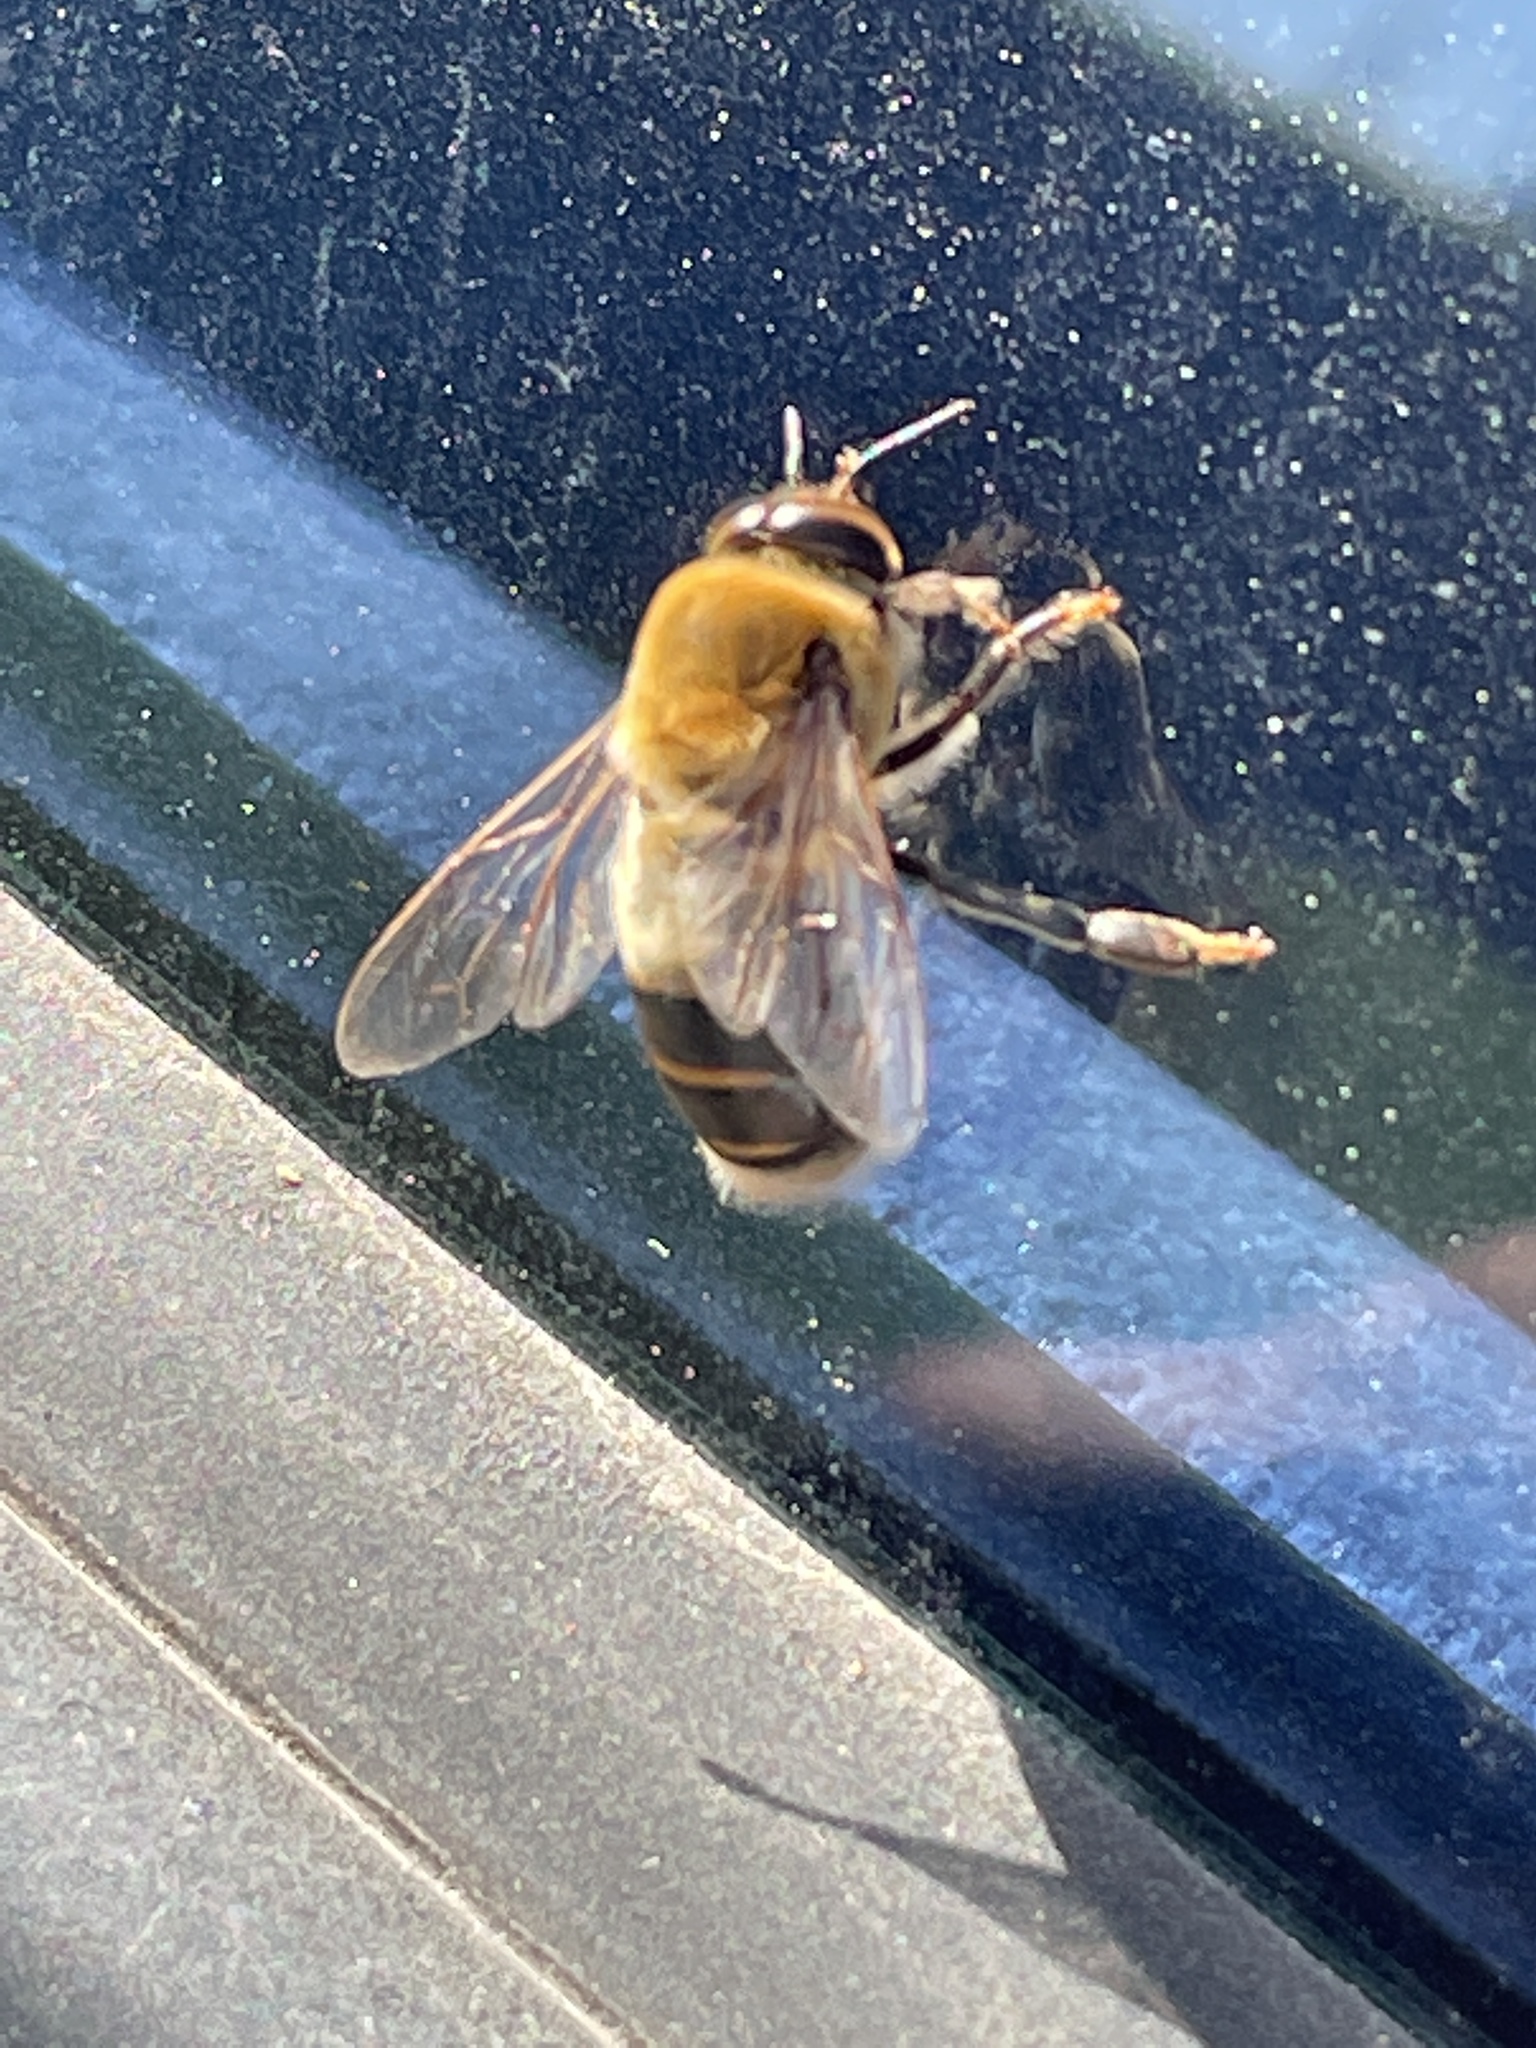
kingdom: Animalia
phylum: Arthropoda
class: Insecta
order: Hymenoptera
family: Apidae
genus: Apis
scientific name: Apis mellifera
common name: Honey bee
